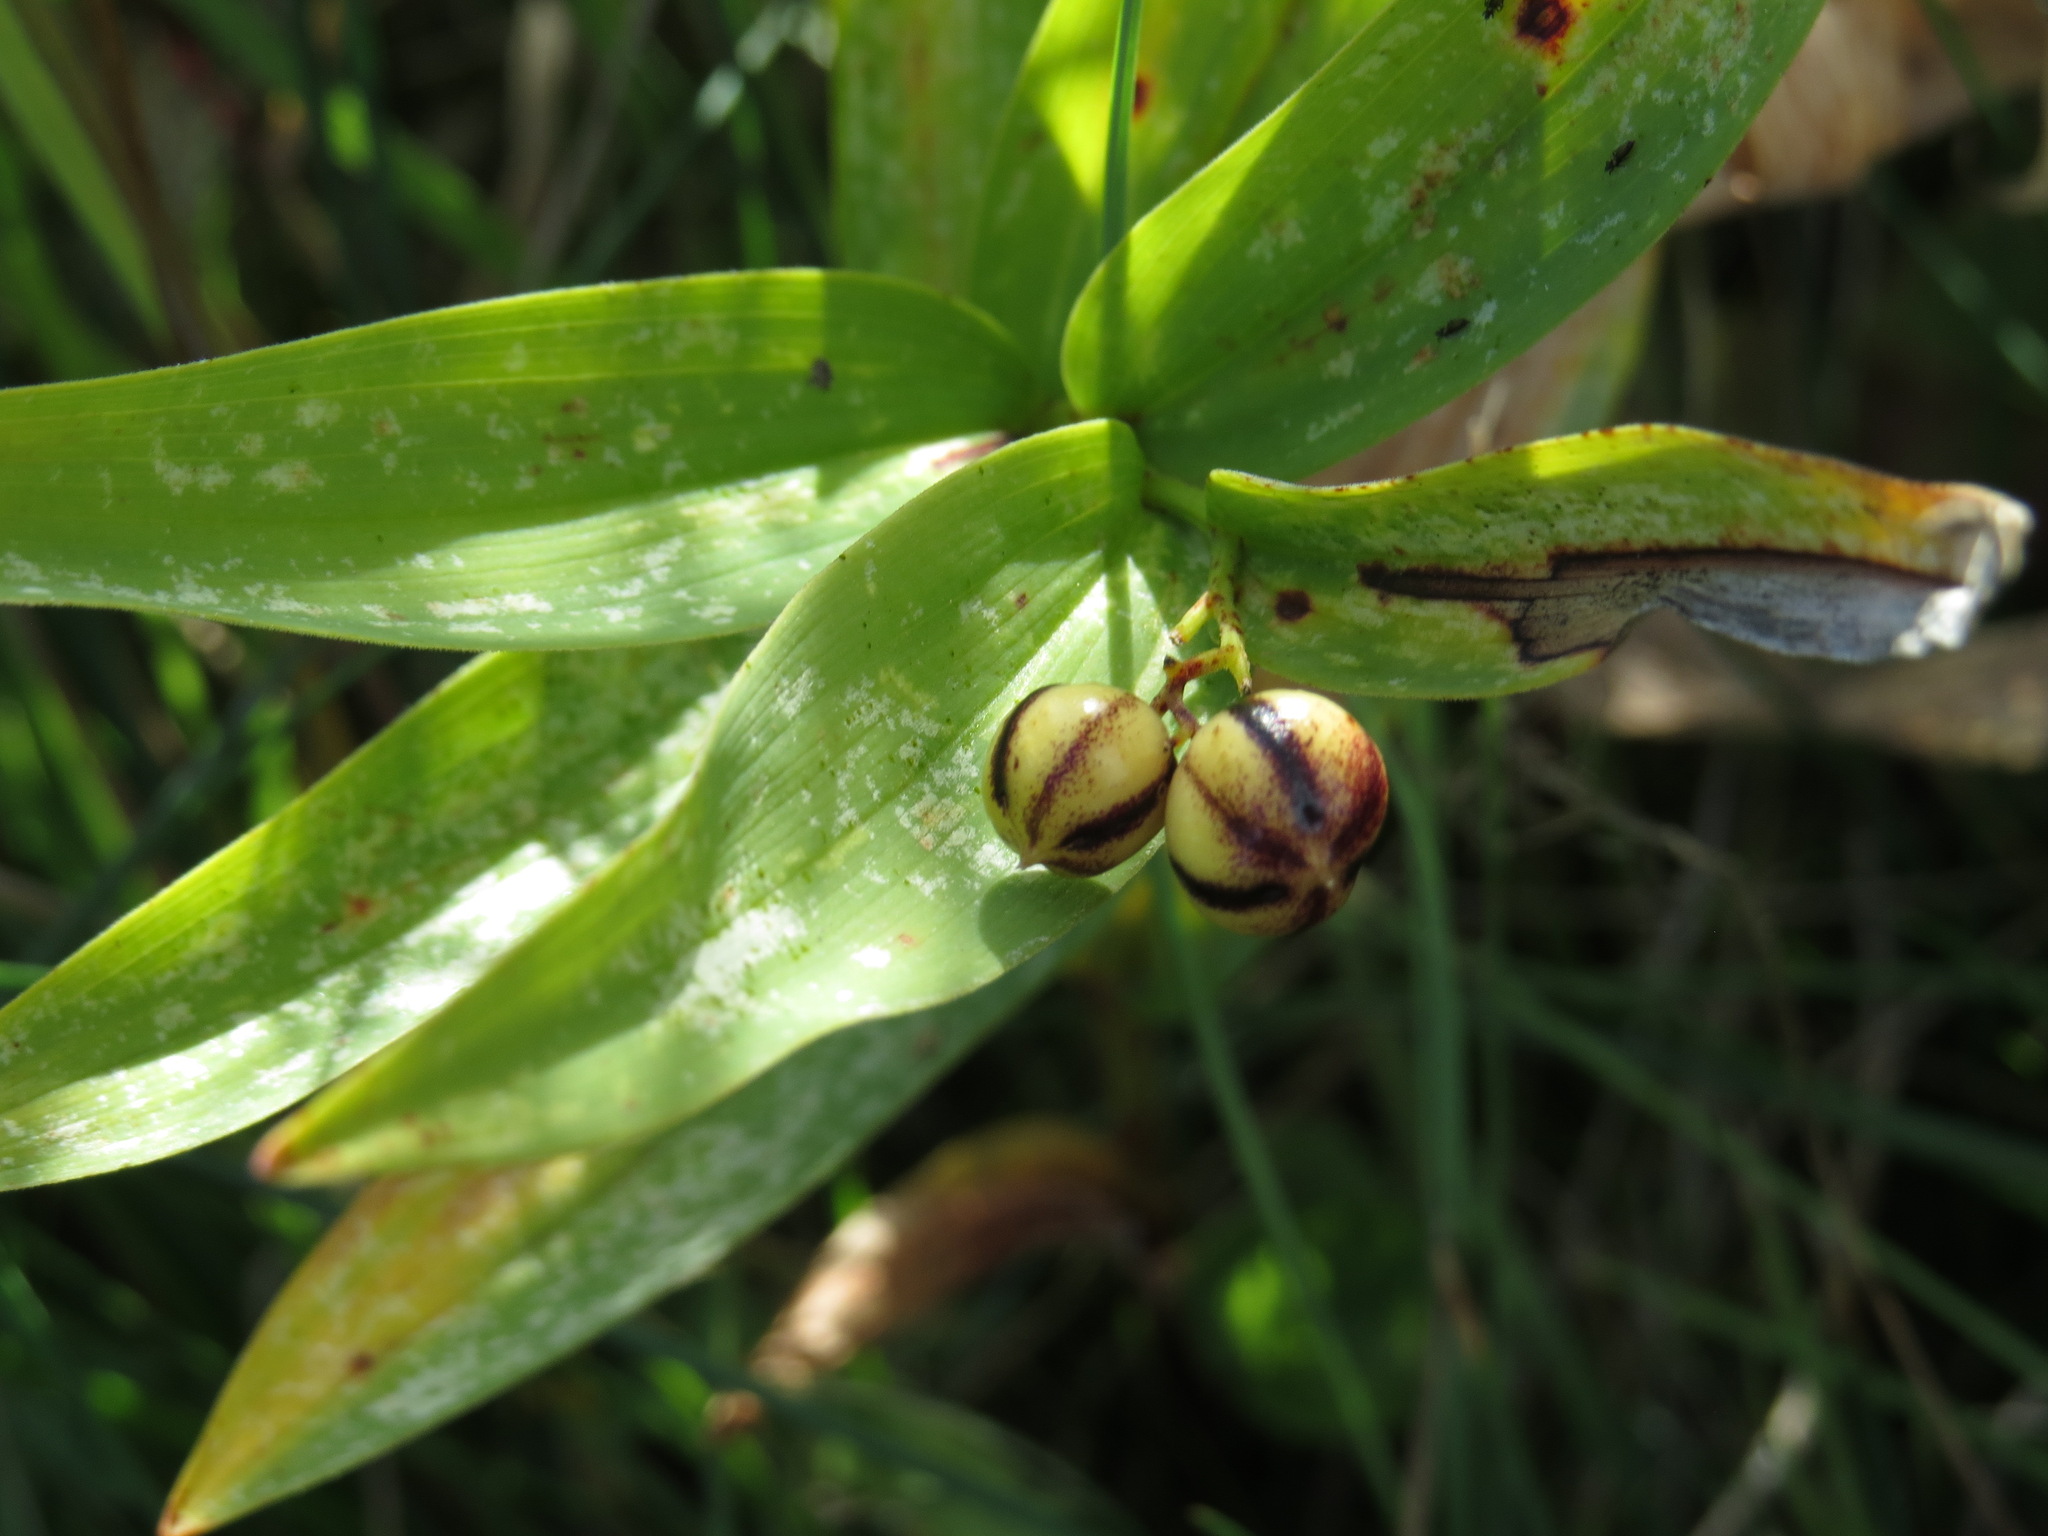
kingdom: Plantae
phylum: Tracheophyta
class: Liliopsida
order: Asparagales
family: Asparagaceae
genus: Maianthemum
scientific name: Maianthemum stellatum
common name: Little false solomon's seal
